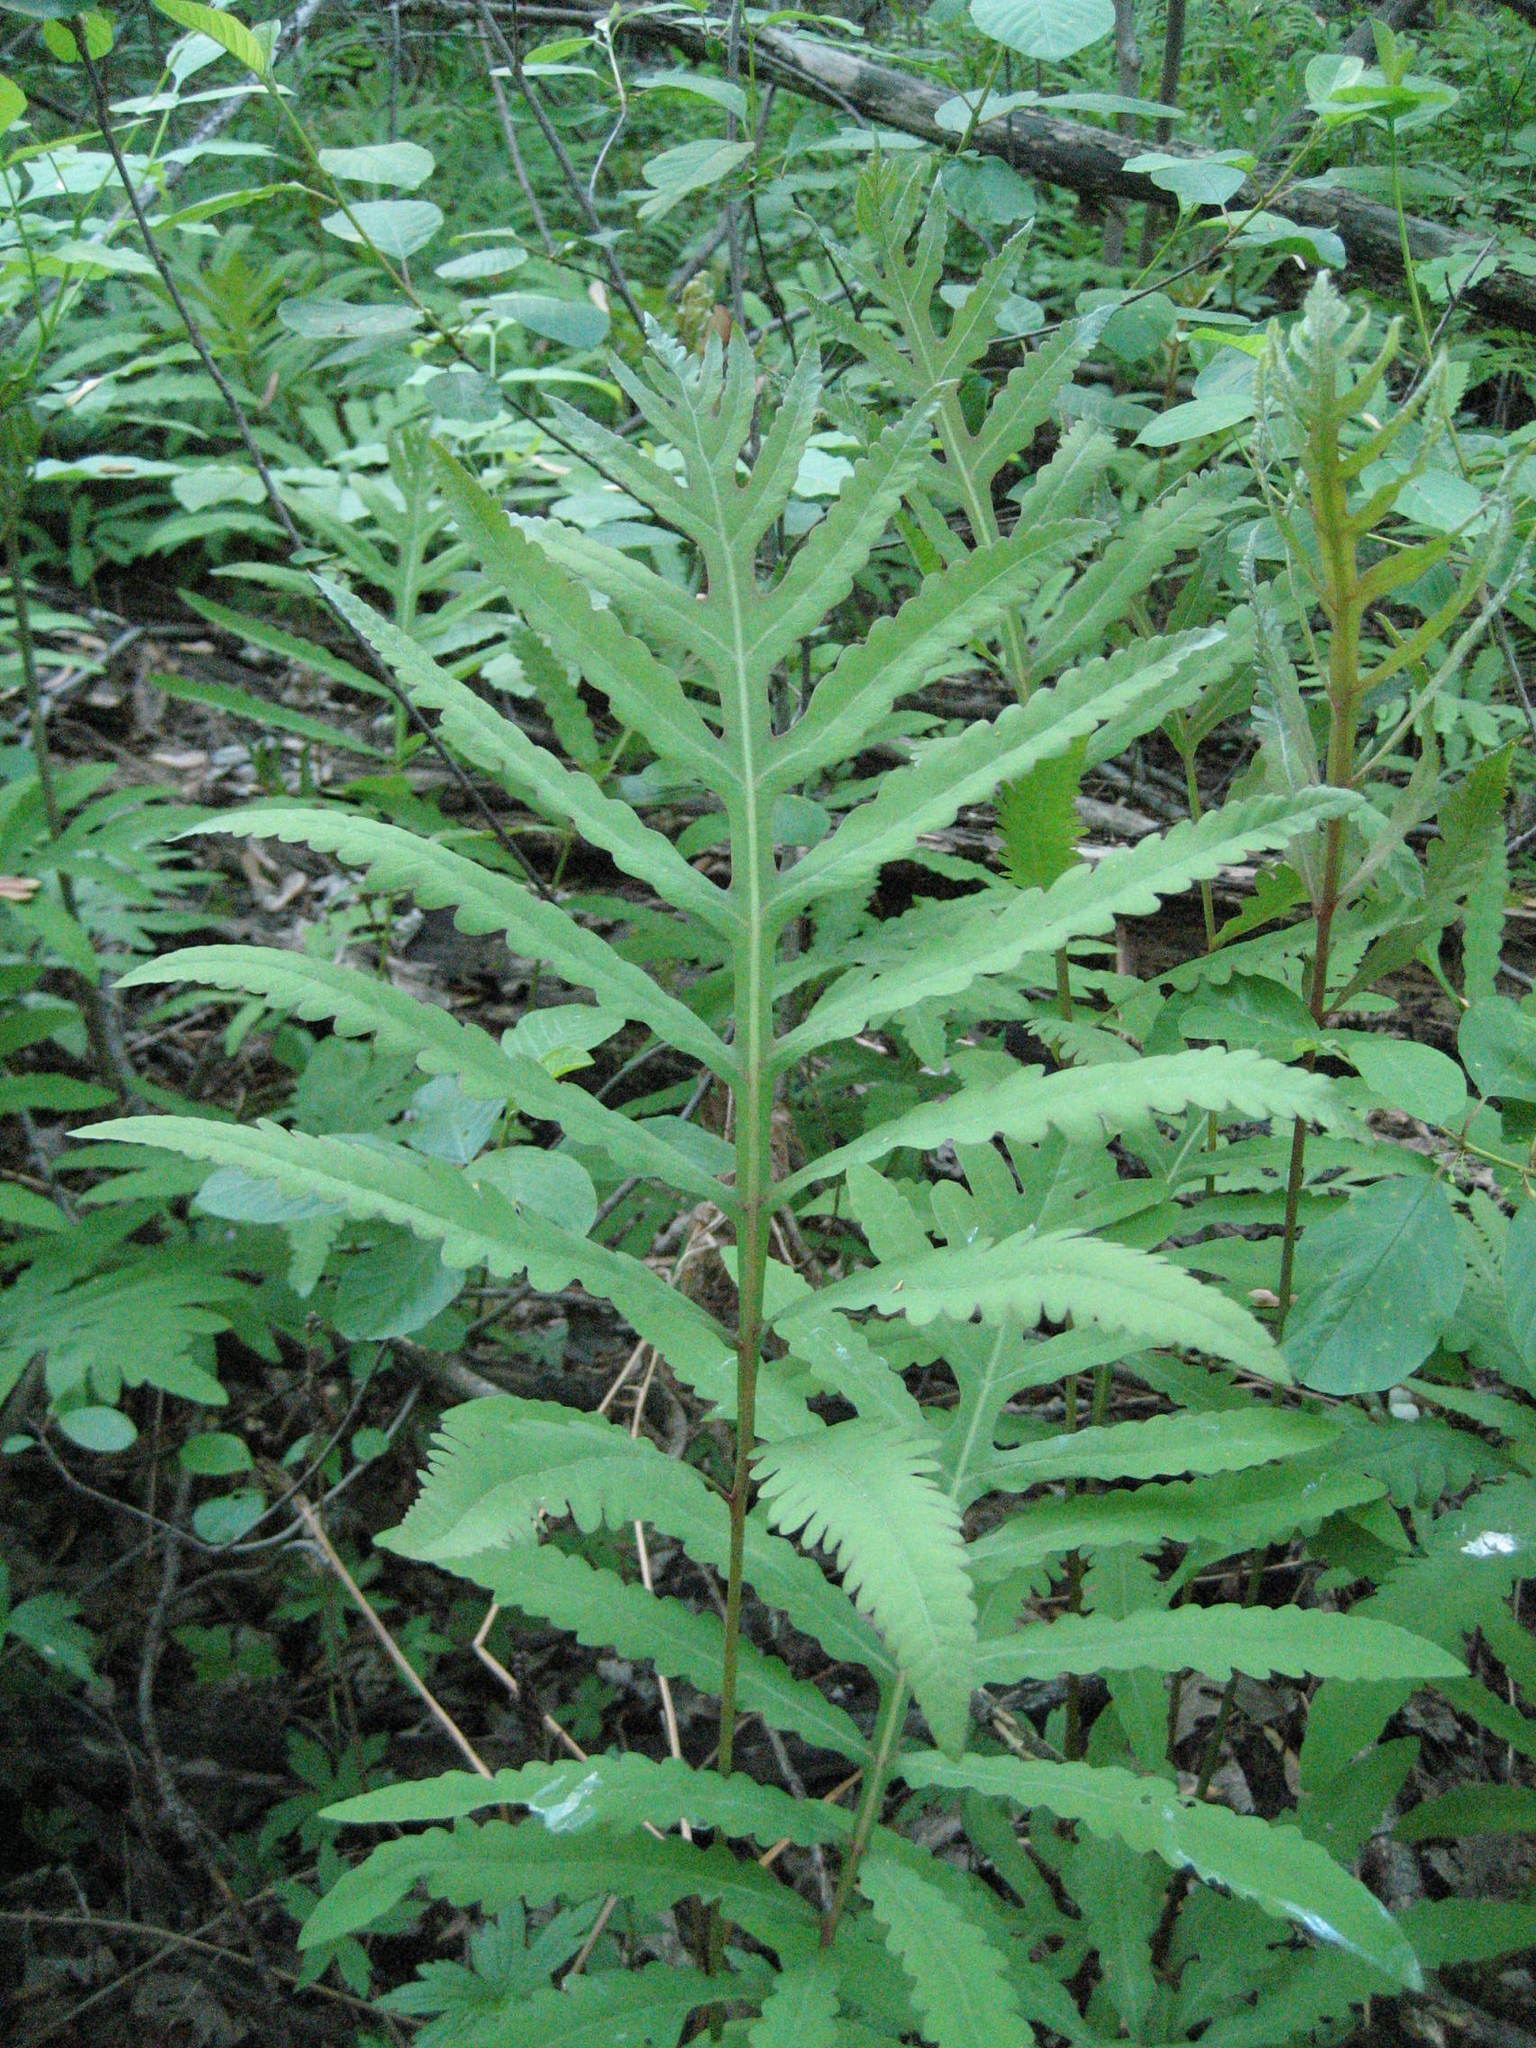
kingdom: Plantae
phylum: Tracheophyta
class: Polypodiopsida
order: Polypodiales
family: Onocleaceae
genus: Onoclea
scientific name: Onoclea sensibilis
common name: Sensitive fern
